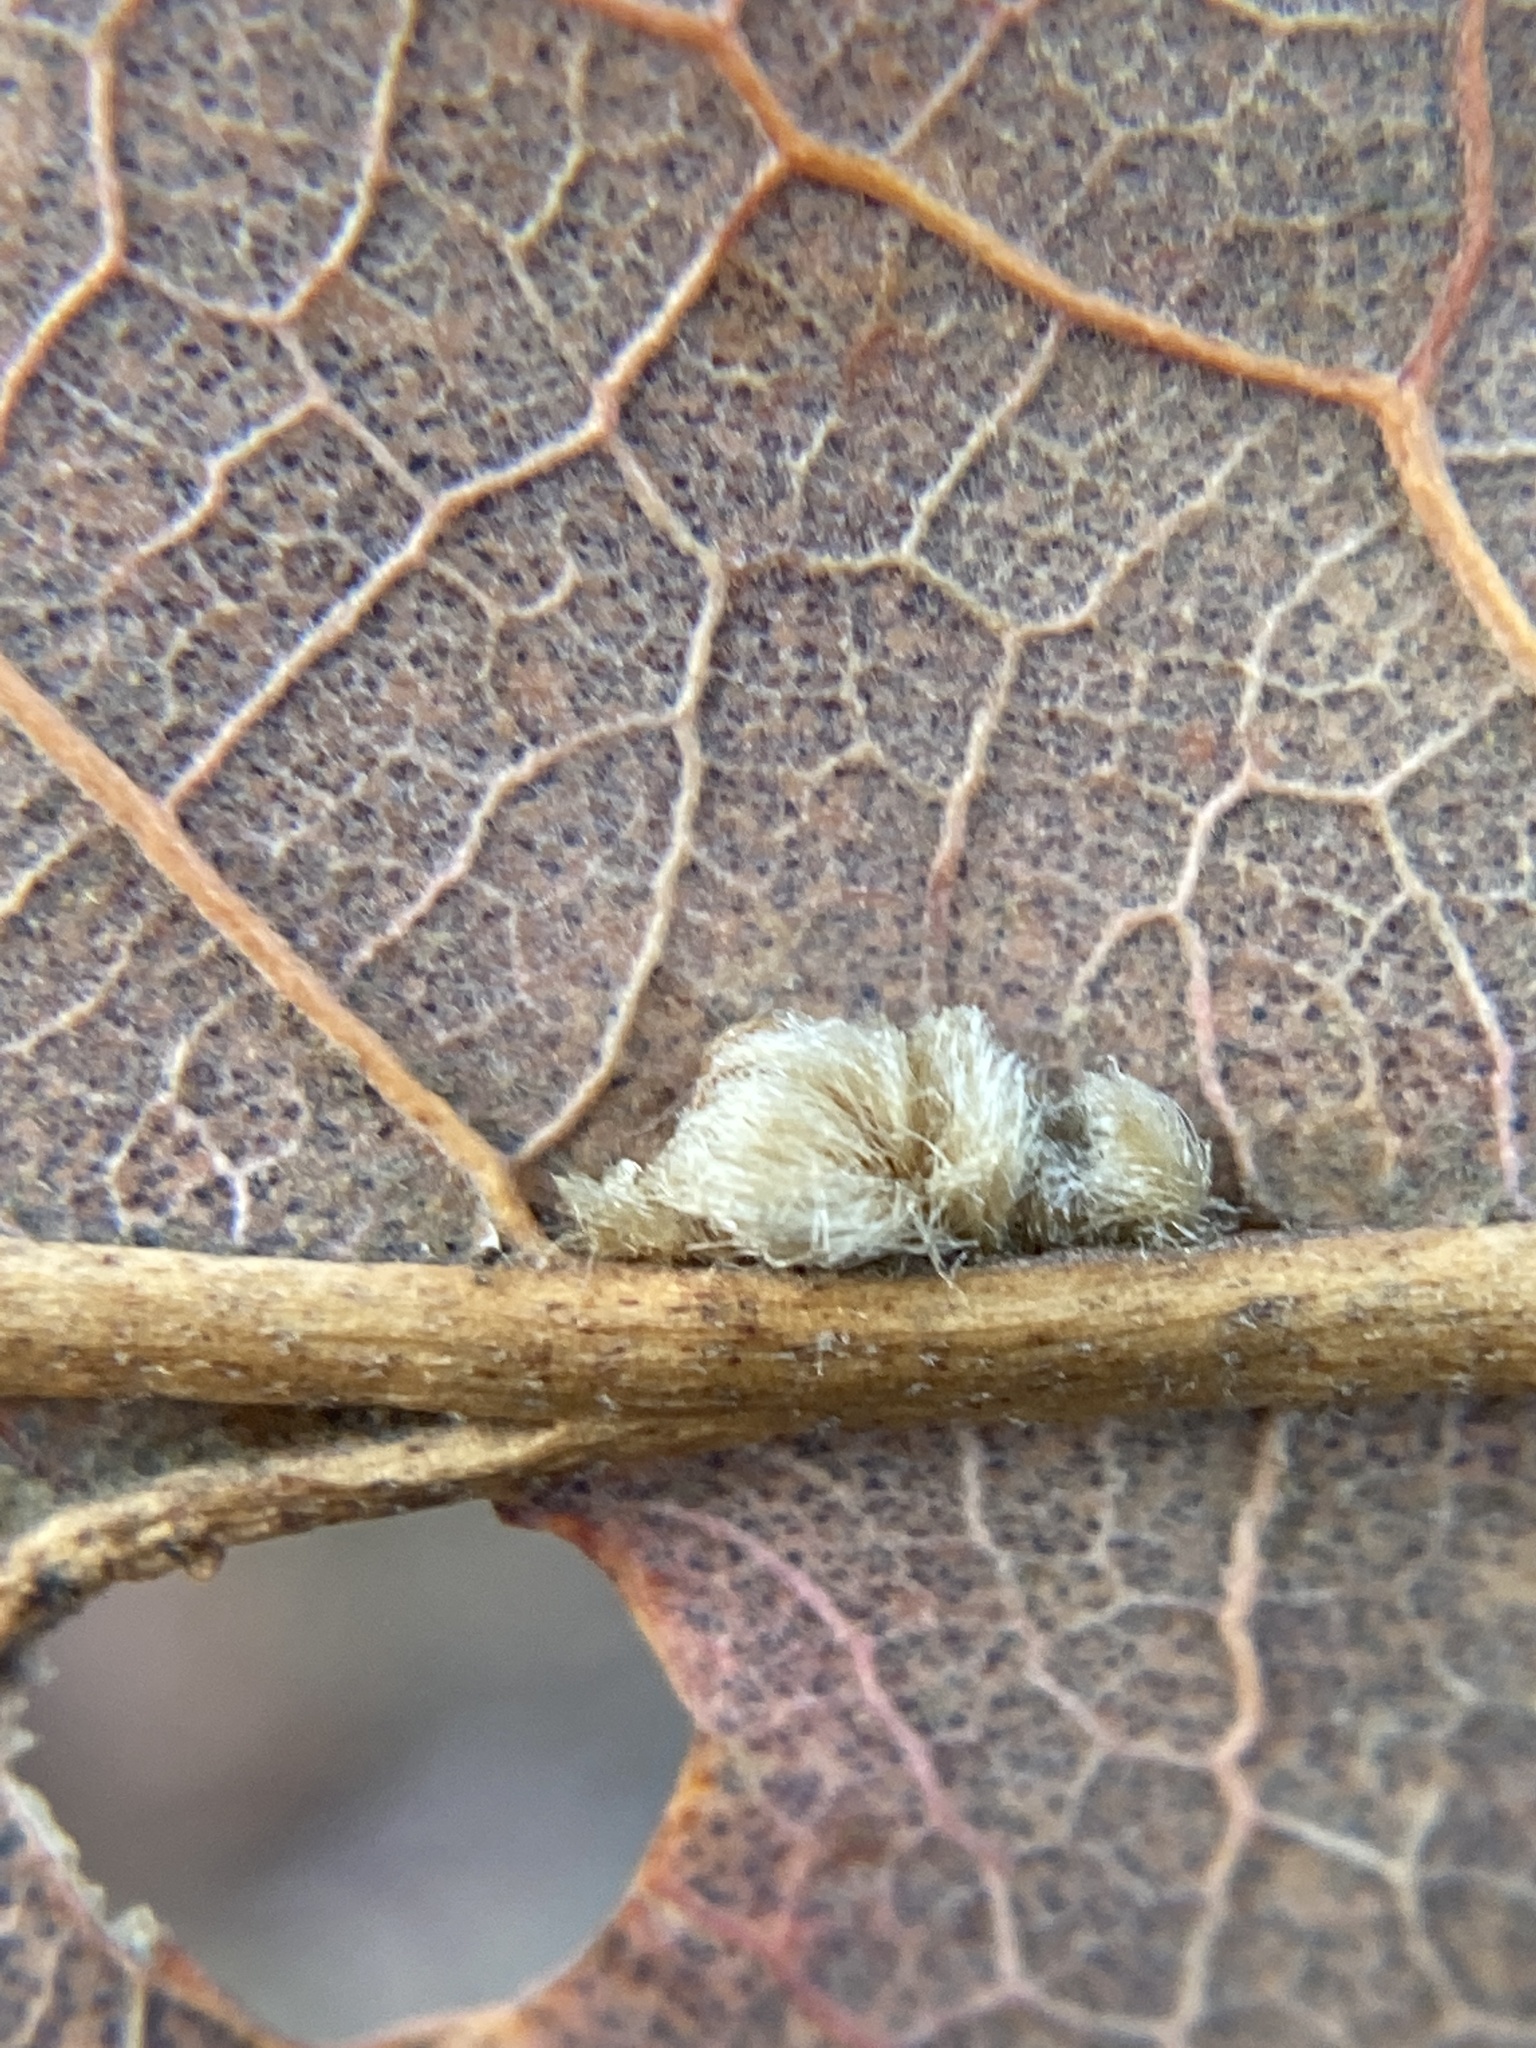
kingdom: Animalia
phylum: Arthropoda
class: Insecta
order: Hymenoptera
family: Cynipidae
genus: Andricus
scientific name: Andricus Druon pattoni
